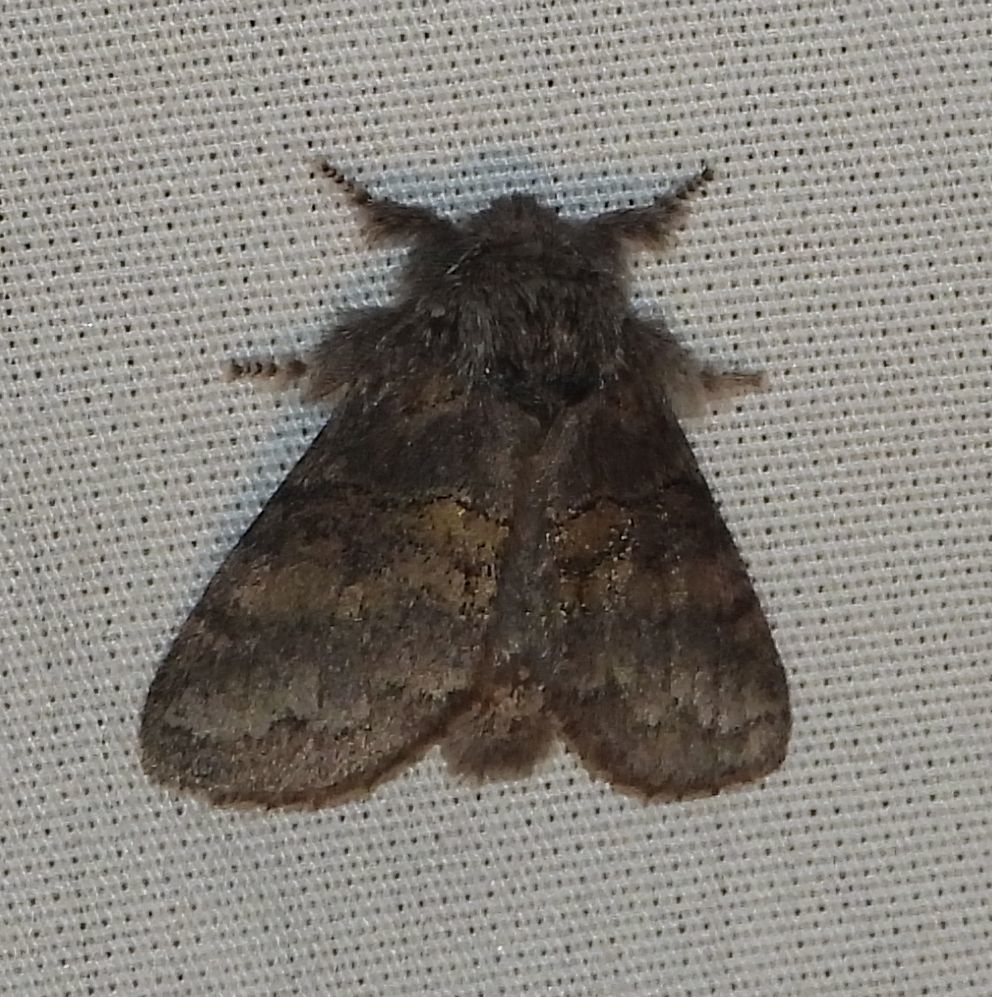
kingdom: Animalia
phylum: Arthropoda
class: Insecta
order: Lepidoptera
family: Notodontidae
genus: Gluphisia
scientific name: Gluphisia septentrionis
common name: Common gluphisia
